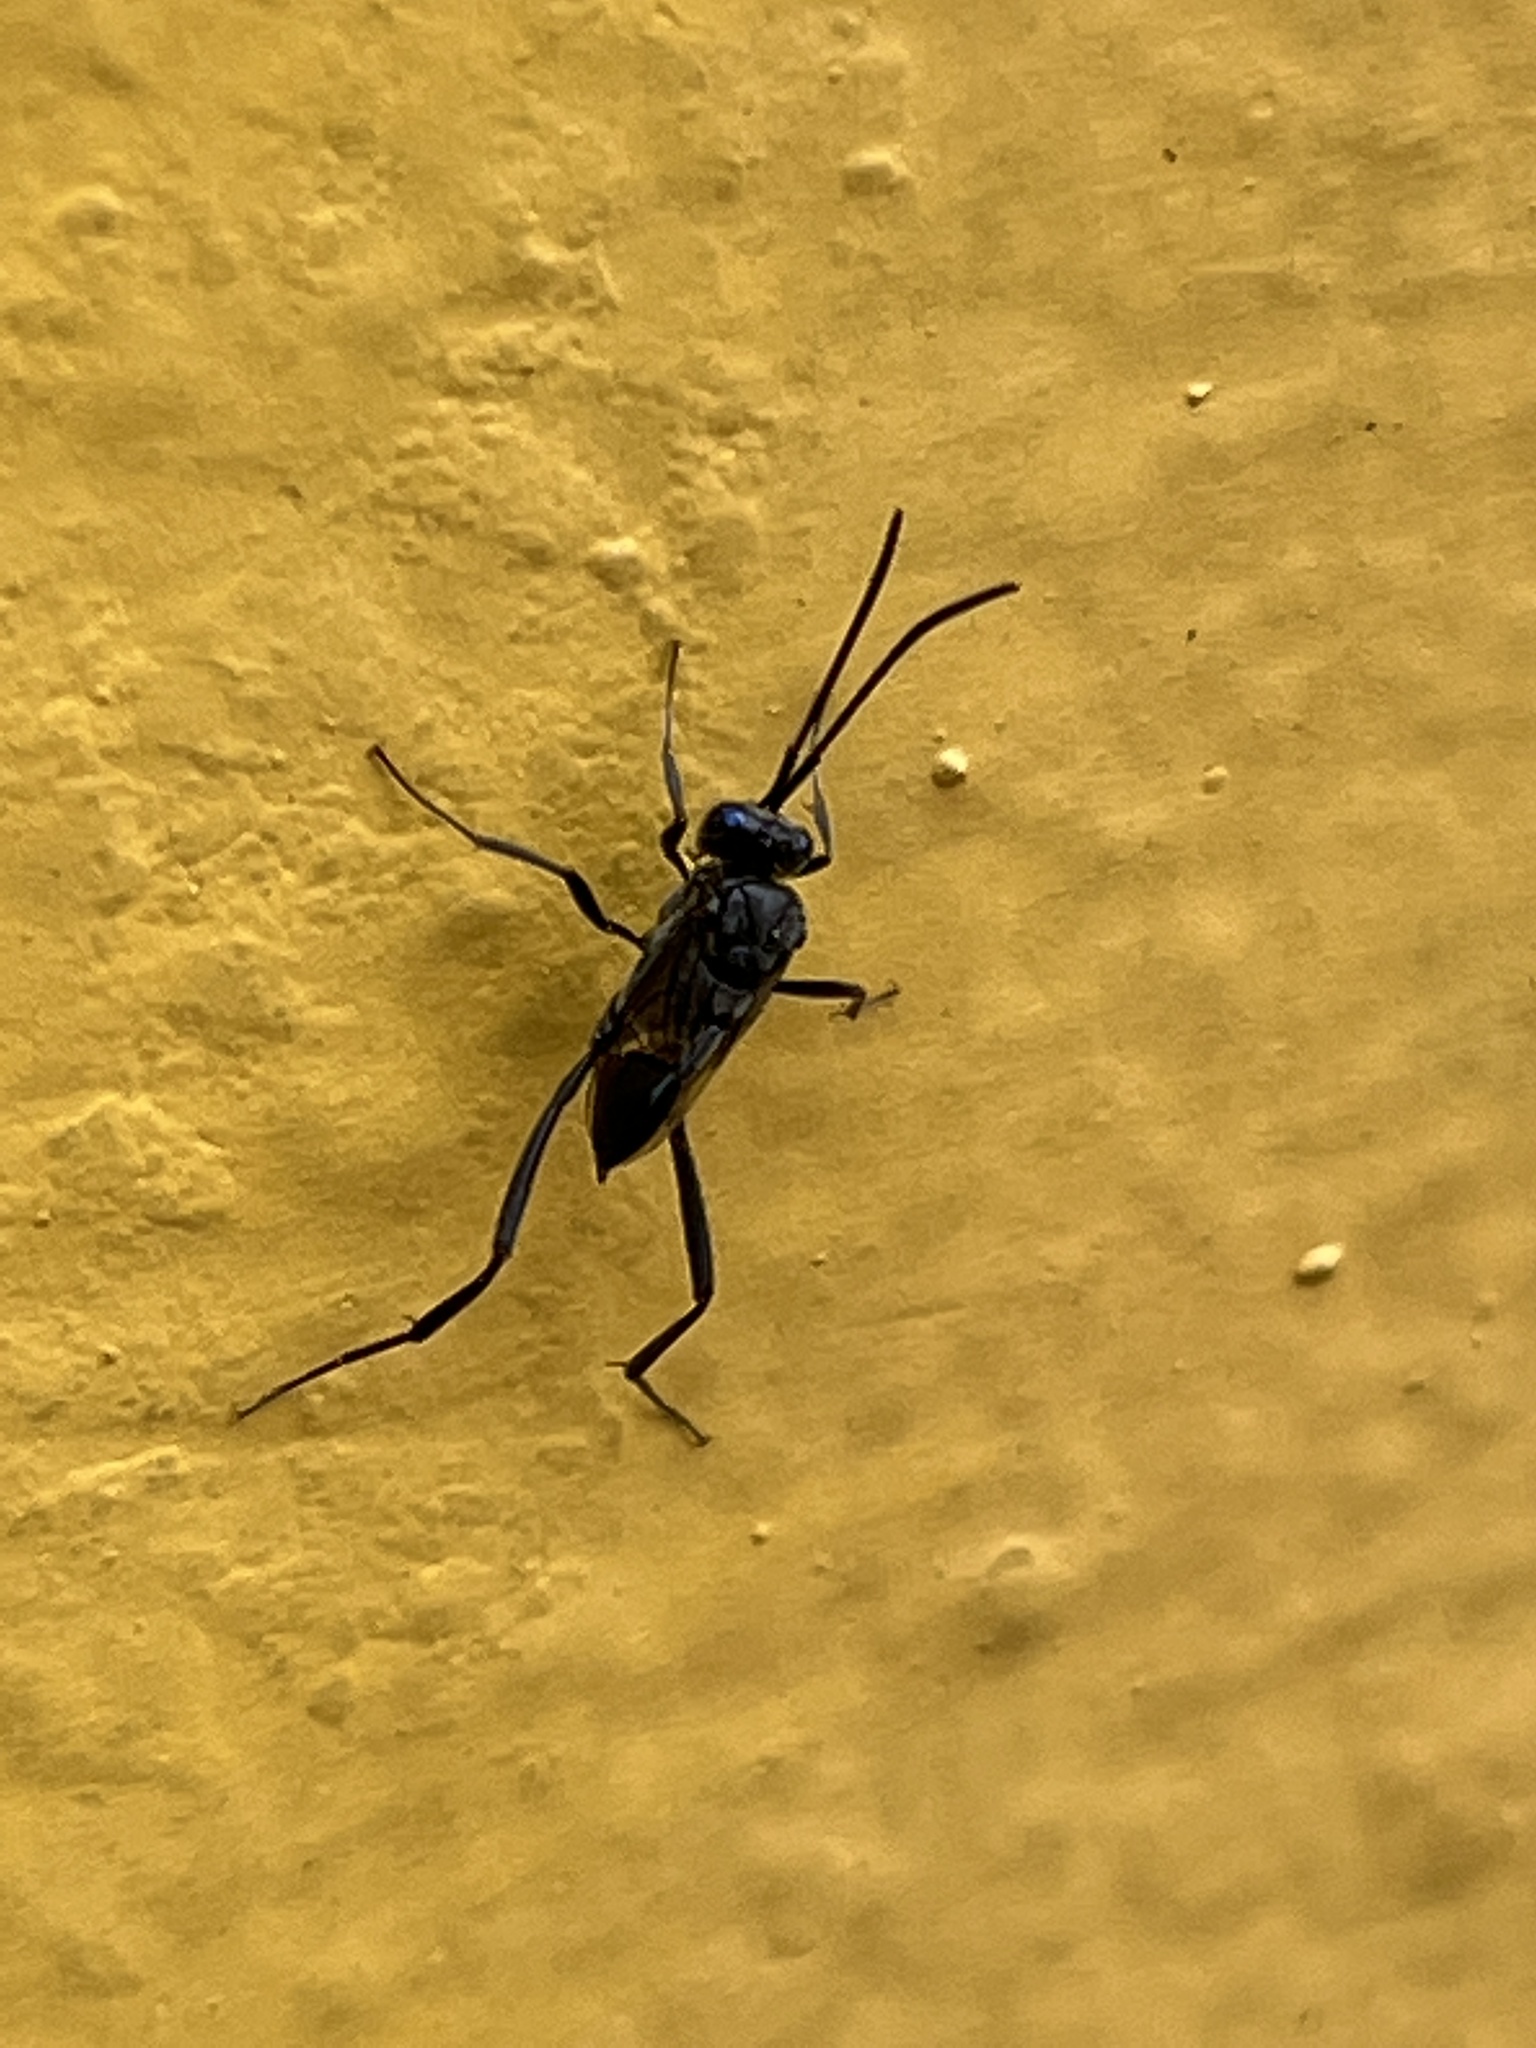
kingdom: Animalia
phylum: Arthropoda
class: Insecta
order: Hymenoptera
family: Evaniidae
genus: Evania
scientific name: Evania appendigaster
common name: Ensign wasp
